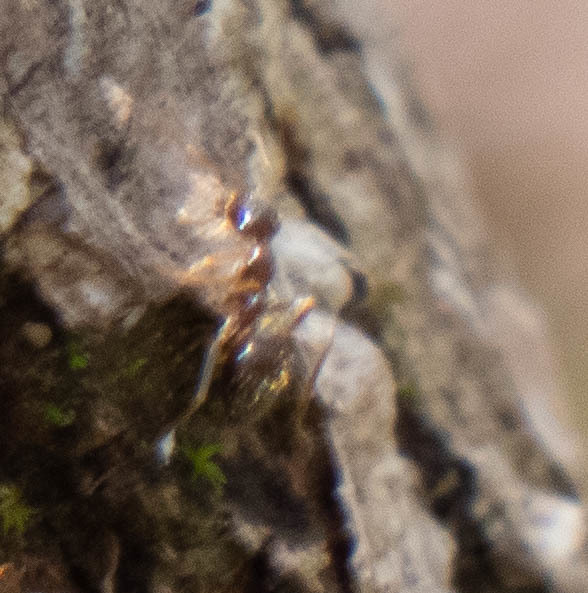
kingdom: Animalia
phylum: Arthropoda
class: Insecta
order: Hymenoptera
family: Formicidae
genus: Prenolepis
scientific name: Prenolepis imparis
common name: Small honey ant
